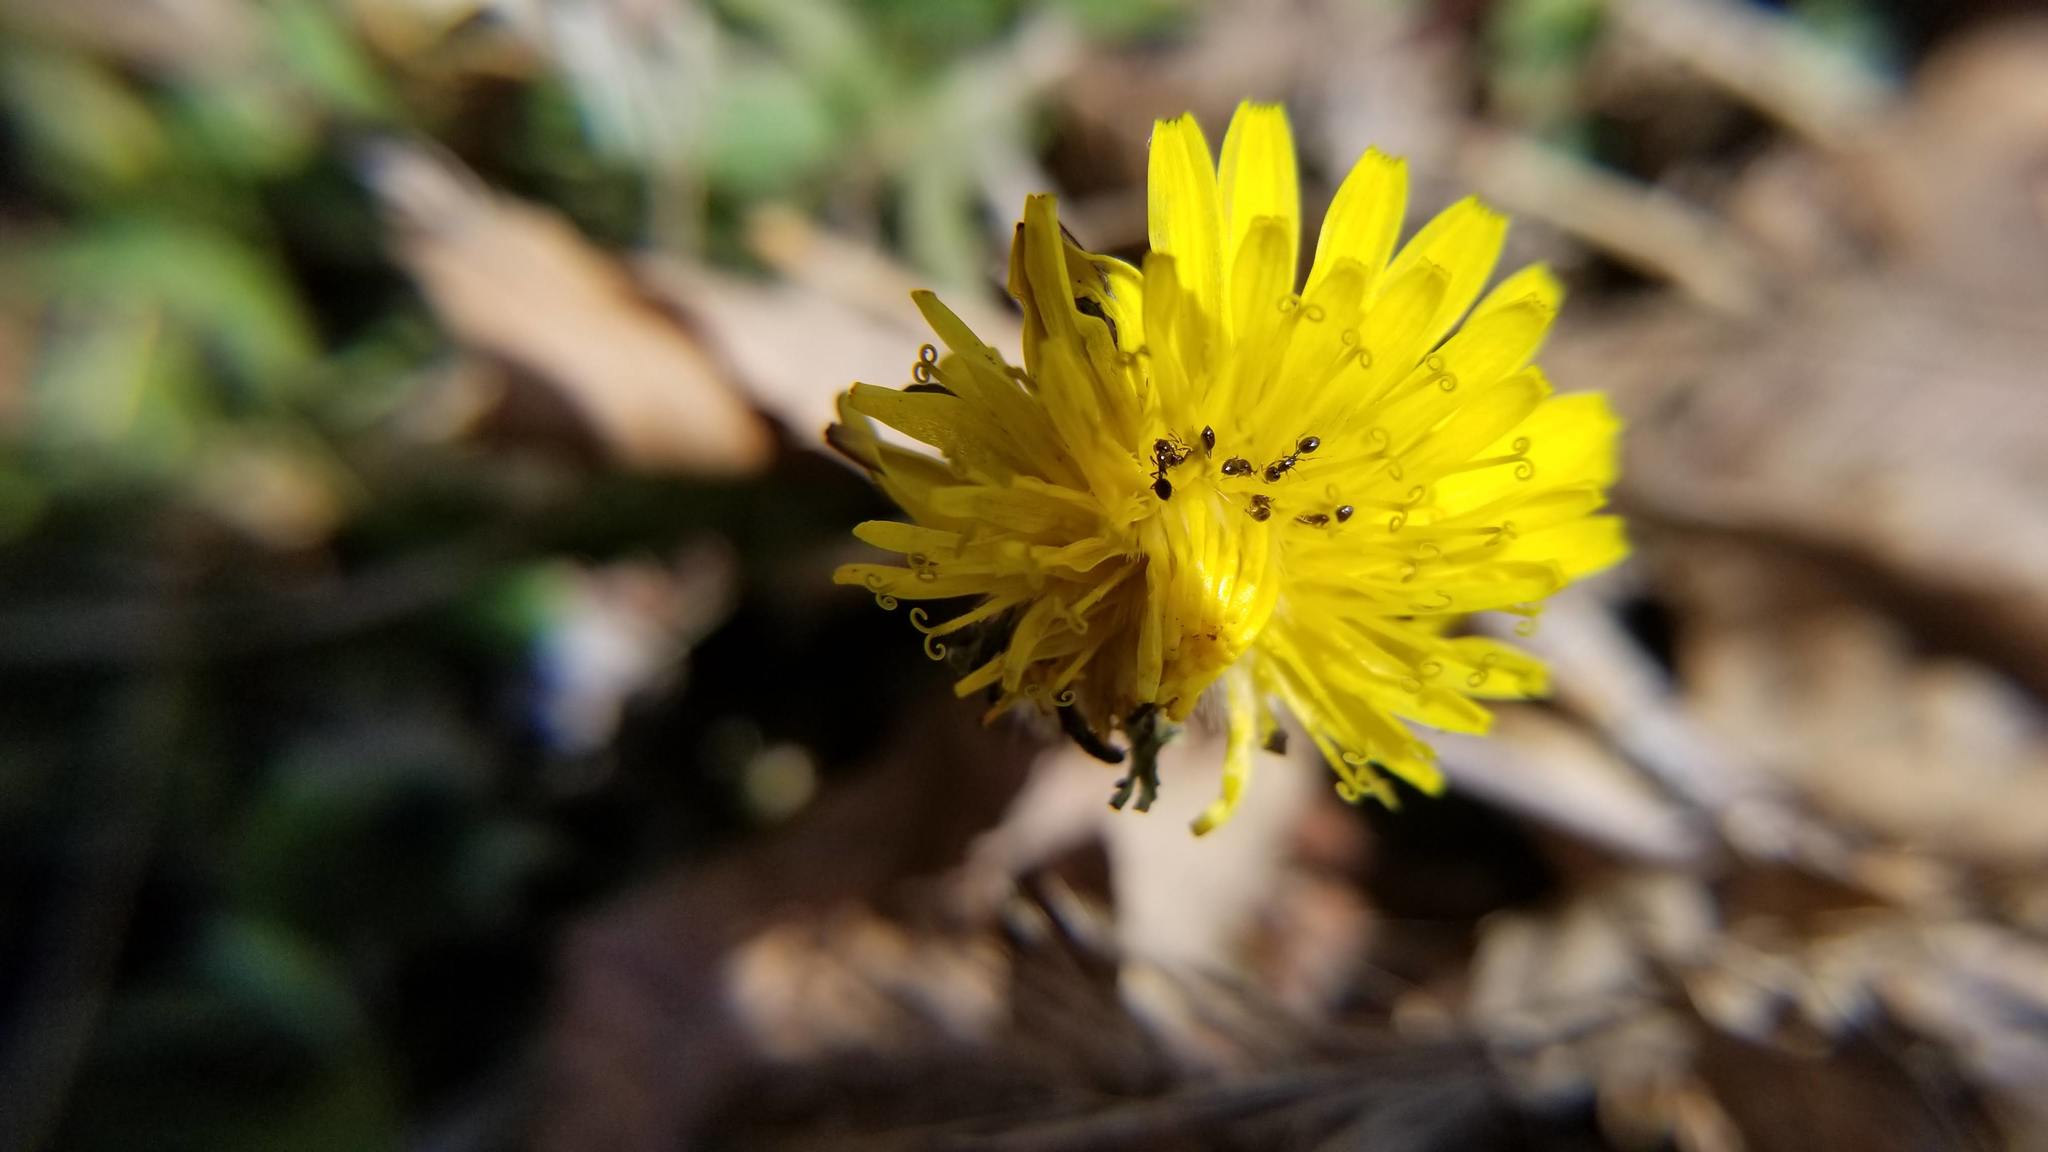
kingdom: Animalia
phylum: Arthropoda
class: Insecta
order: Hymenoptera
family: Formicidae
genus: Monomorium
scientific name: Monomorium minimum
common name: Little black ant
